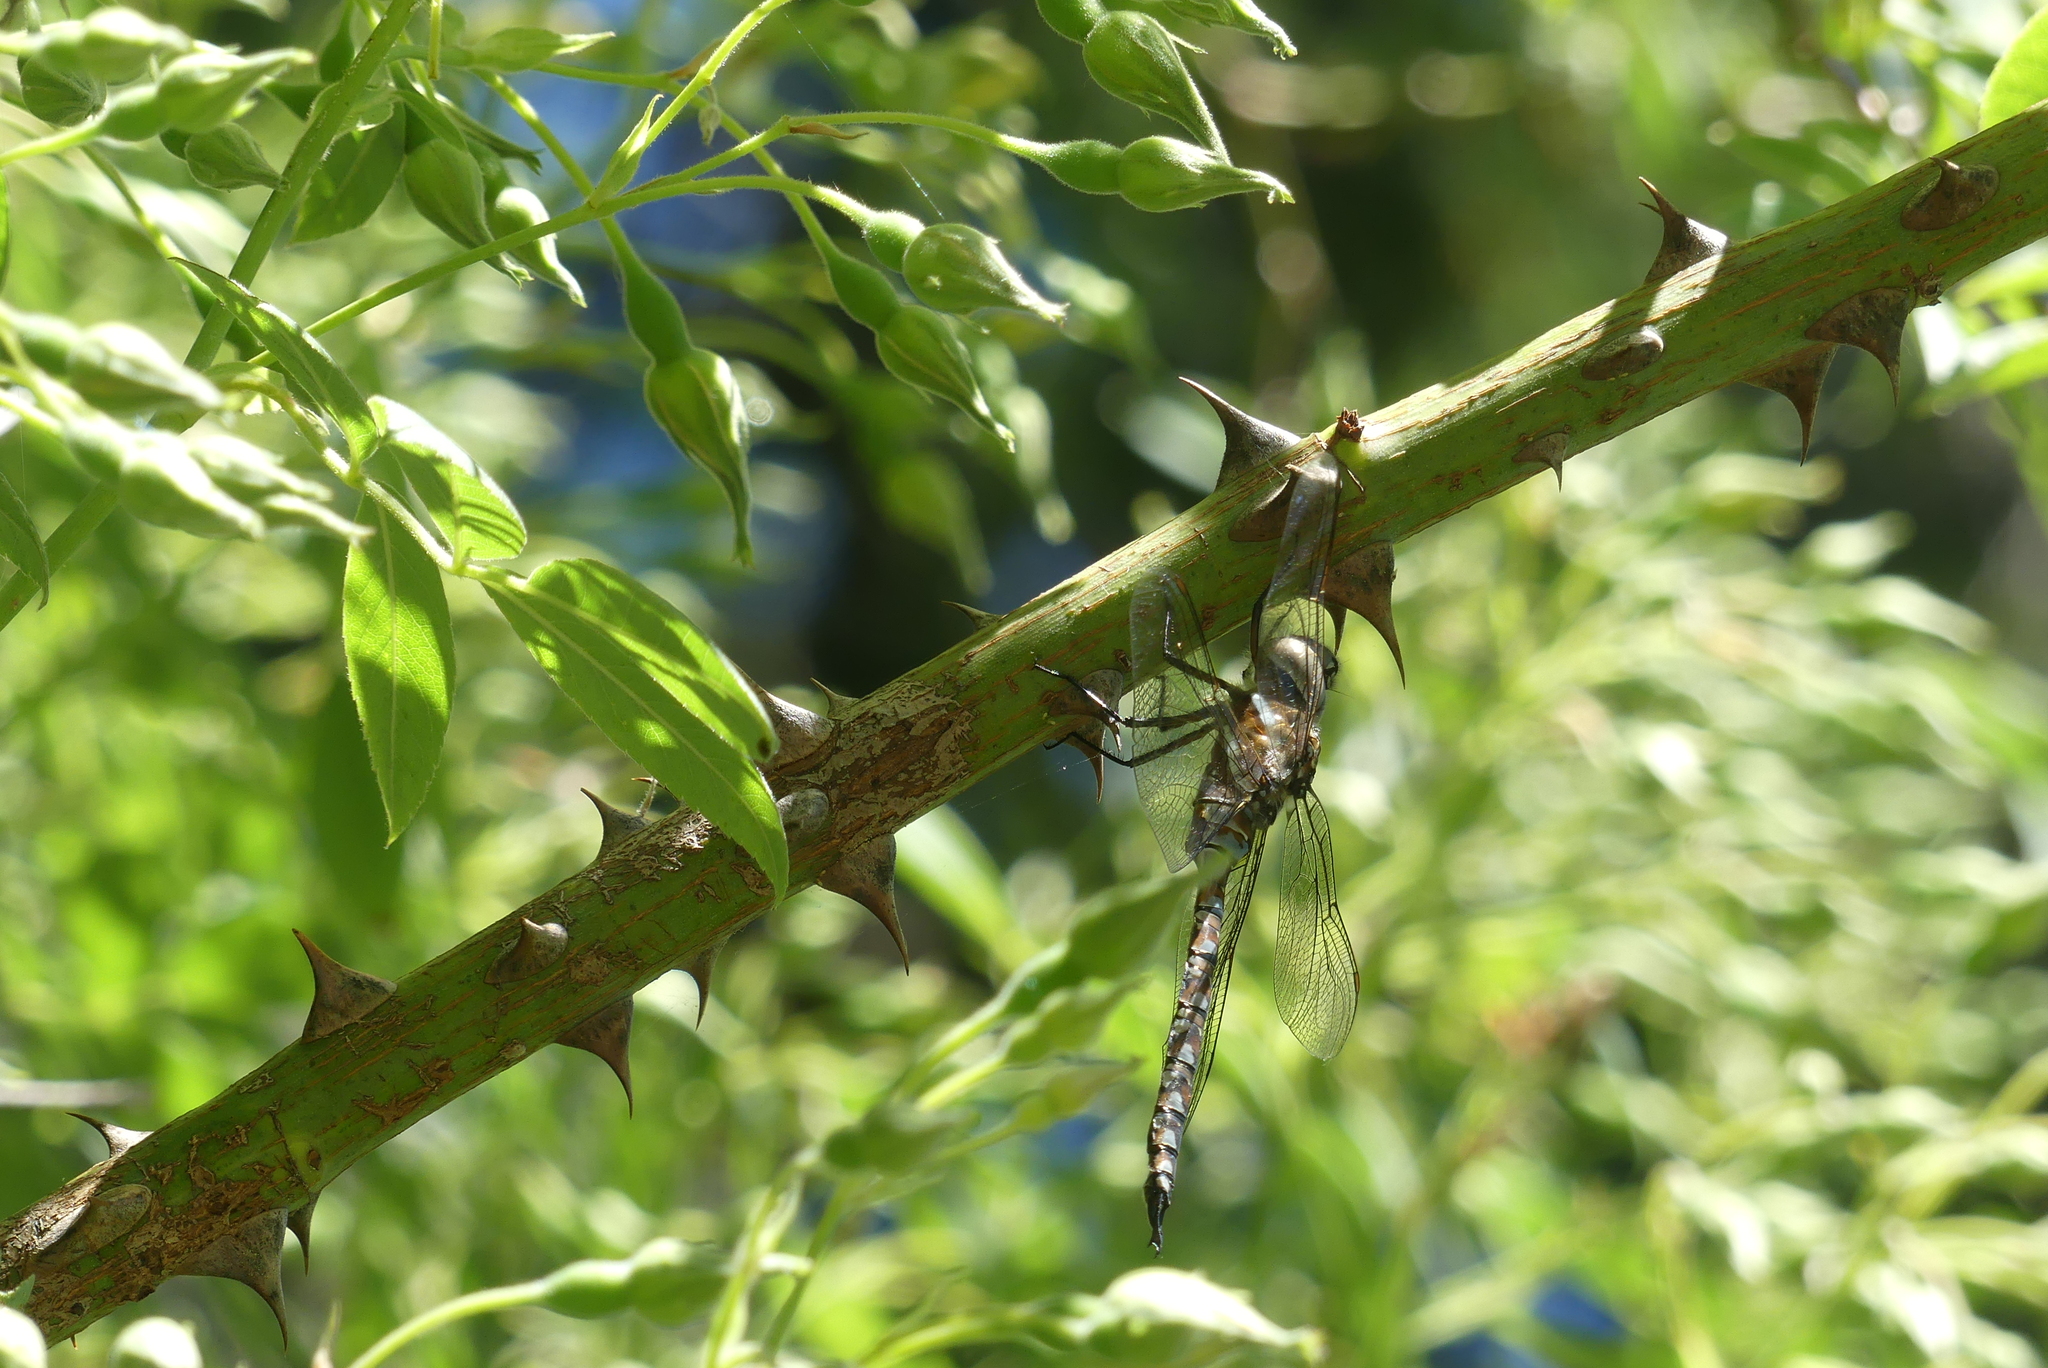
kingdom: Animalia
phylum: Arthropoda
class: Insecta
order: Odonata
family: Aeshnidae
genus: Rhionaeschna
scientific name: Rhionaeschna multicolor
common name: Blue-eyed darner
